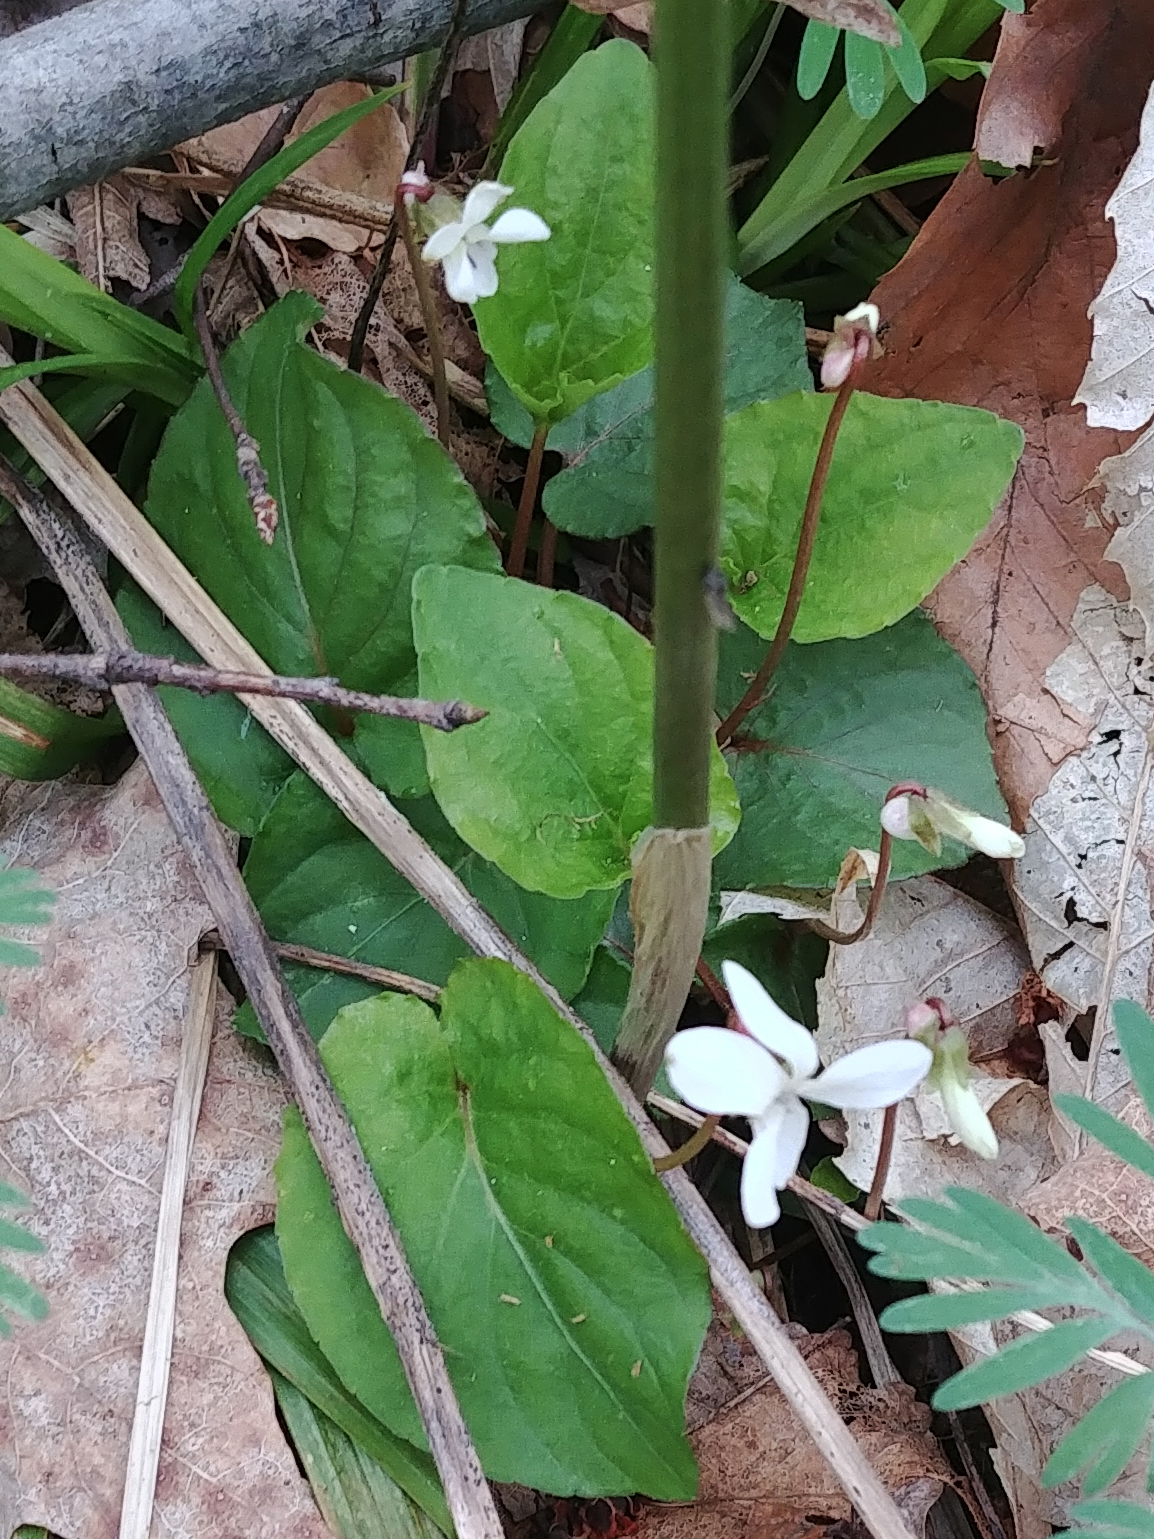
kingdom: Plantae
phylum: Tracheophyta
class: Magnoliopsida
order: Malpighiales
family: Violaceae
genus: Viola
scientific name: Viola blanda
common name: Sweet white violet
